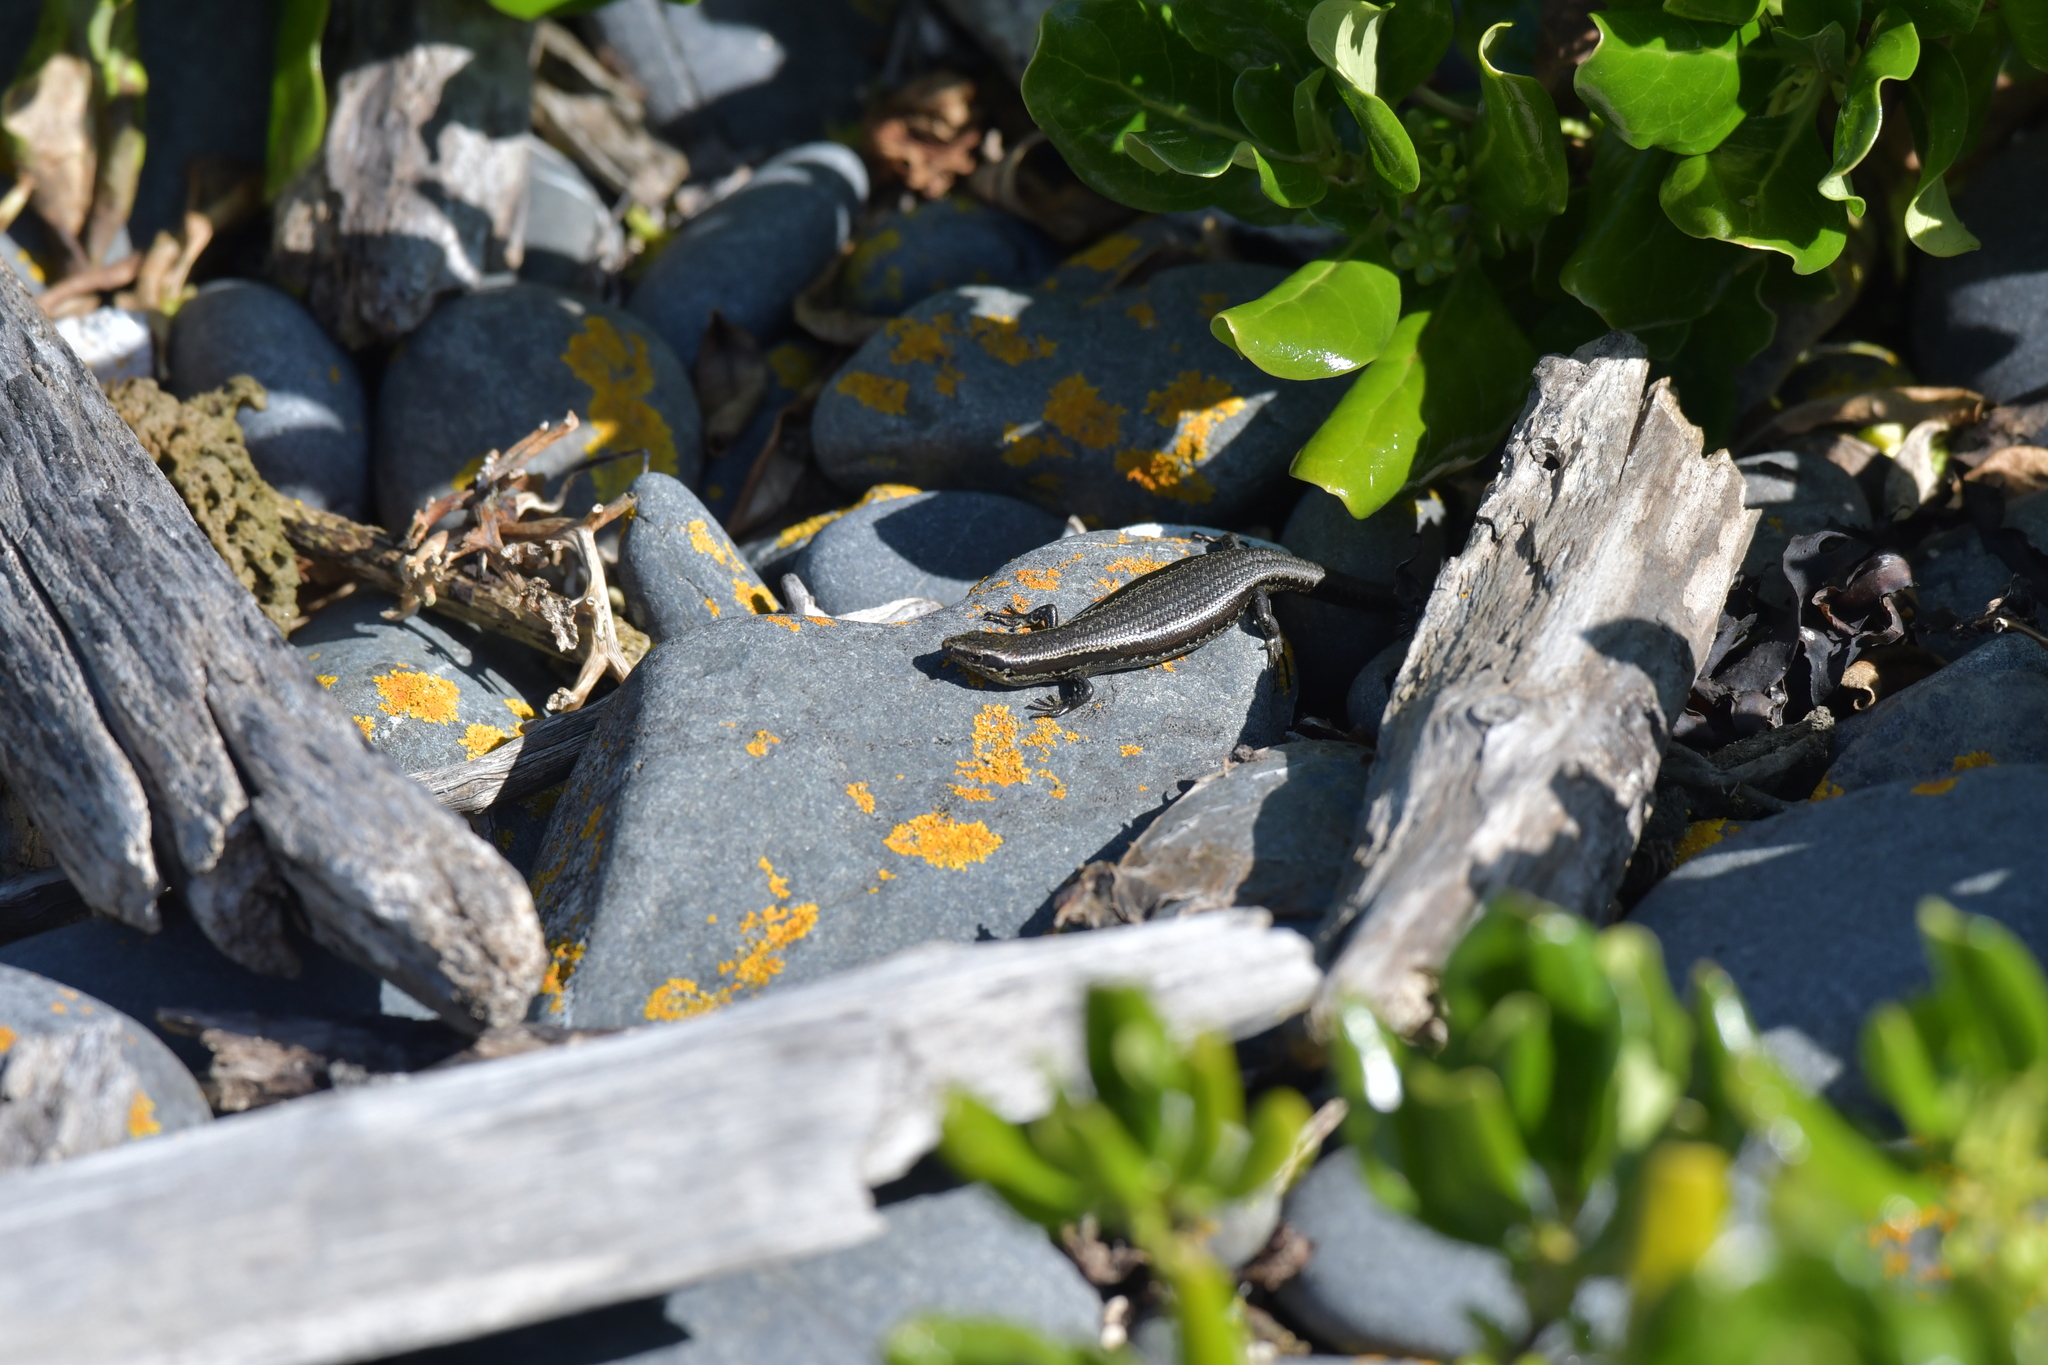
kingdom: Animalia
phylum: Chordata
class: Squamata
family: Scincidae
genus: Oligosoma
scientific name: Oligosoma polychroma
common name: Common new zealand skink
